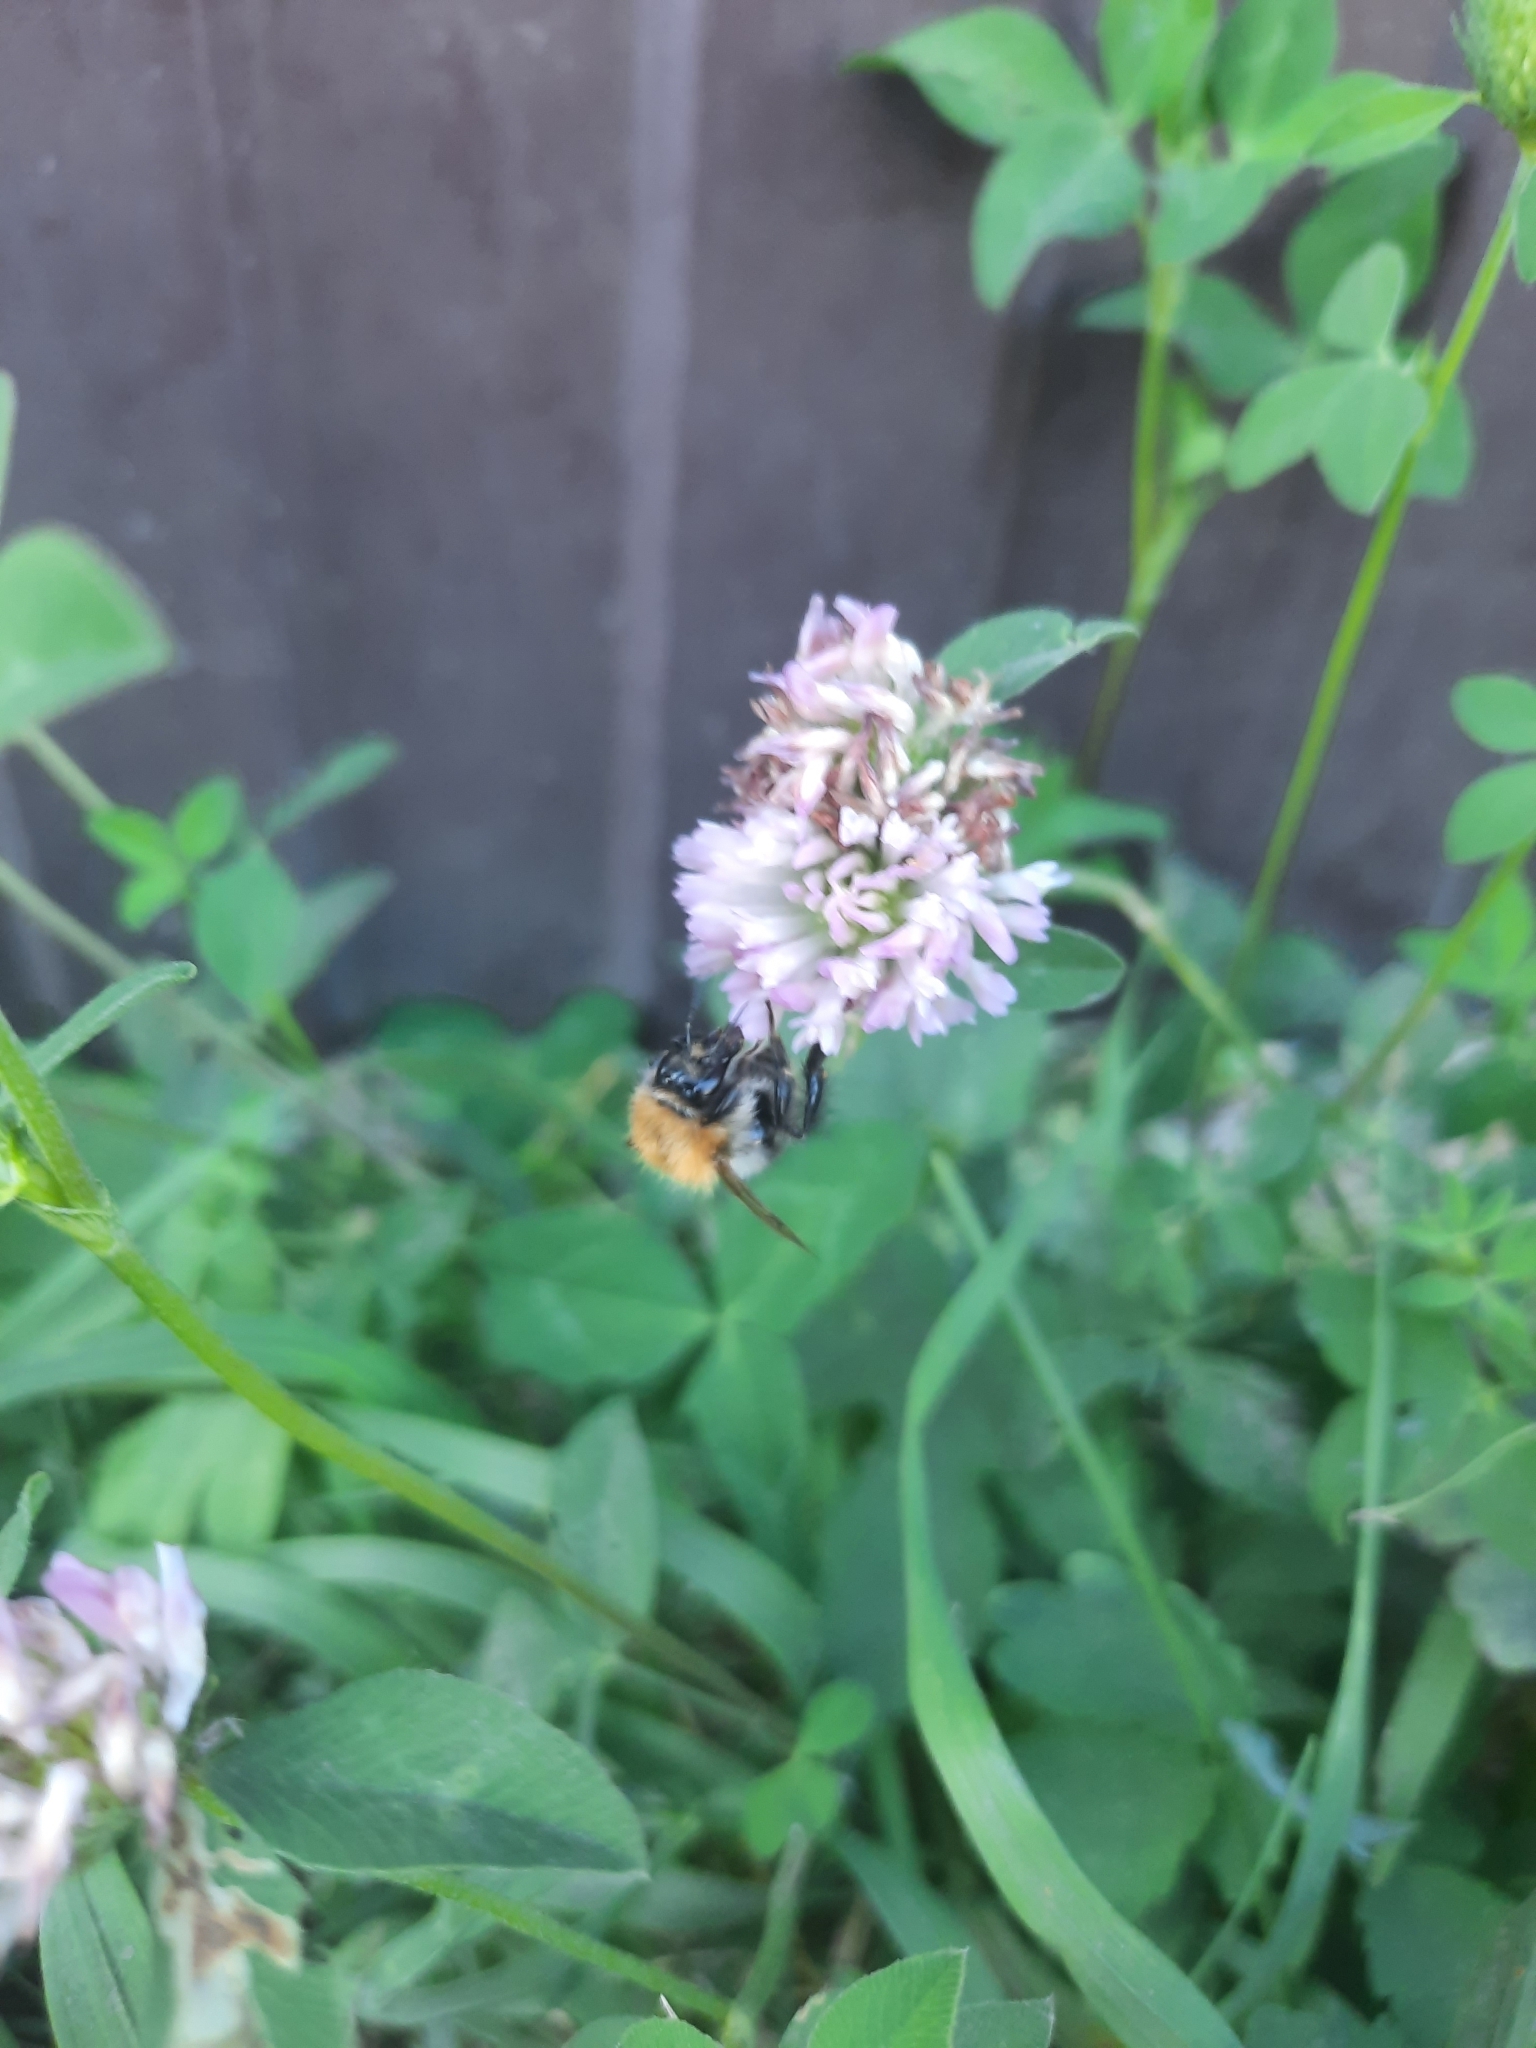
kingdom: Animalia
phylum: Arthropoda
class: Insecta
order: Hymenoptera
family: Apidae
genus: Bombus
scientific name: Bombus pascuorum
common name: Common carder bee
